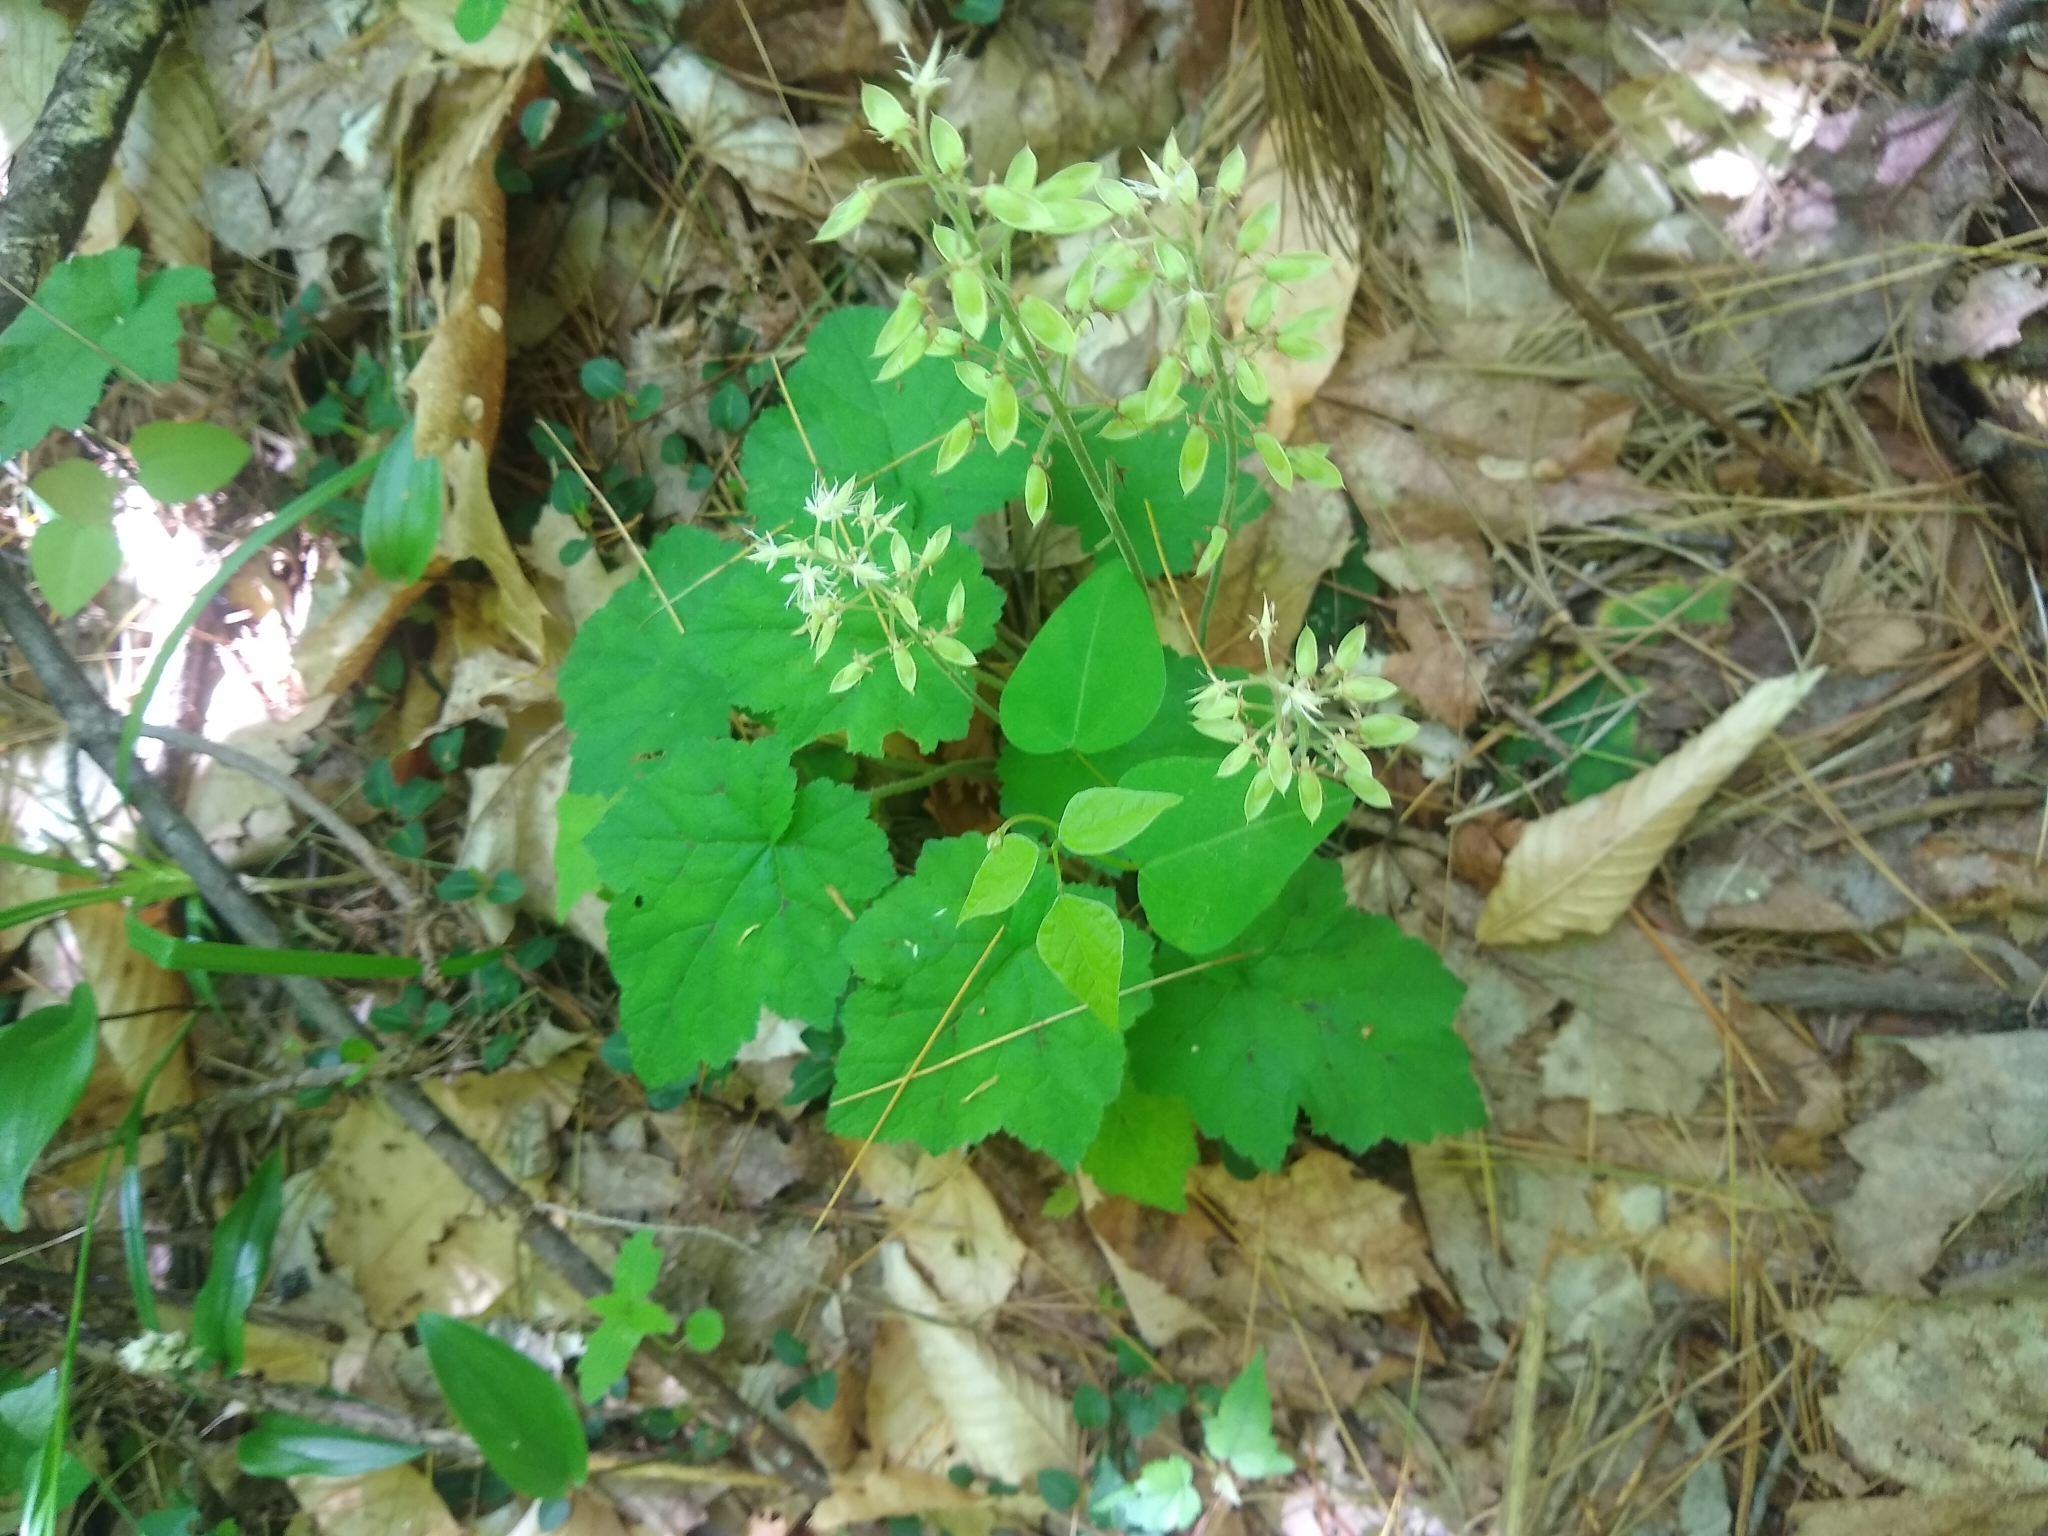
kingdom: Plantae
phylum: Tracheophyta
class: Magnoliopsida
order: Saxifragales
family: Saxifragaceae
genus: Tiarella
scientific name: Tiarella stolonifera
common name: Stoloniferous foamflower
